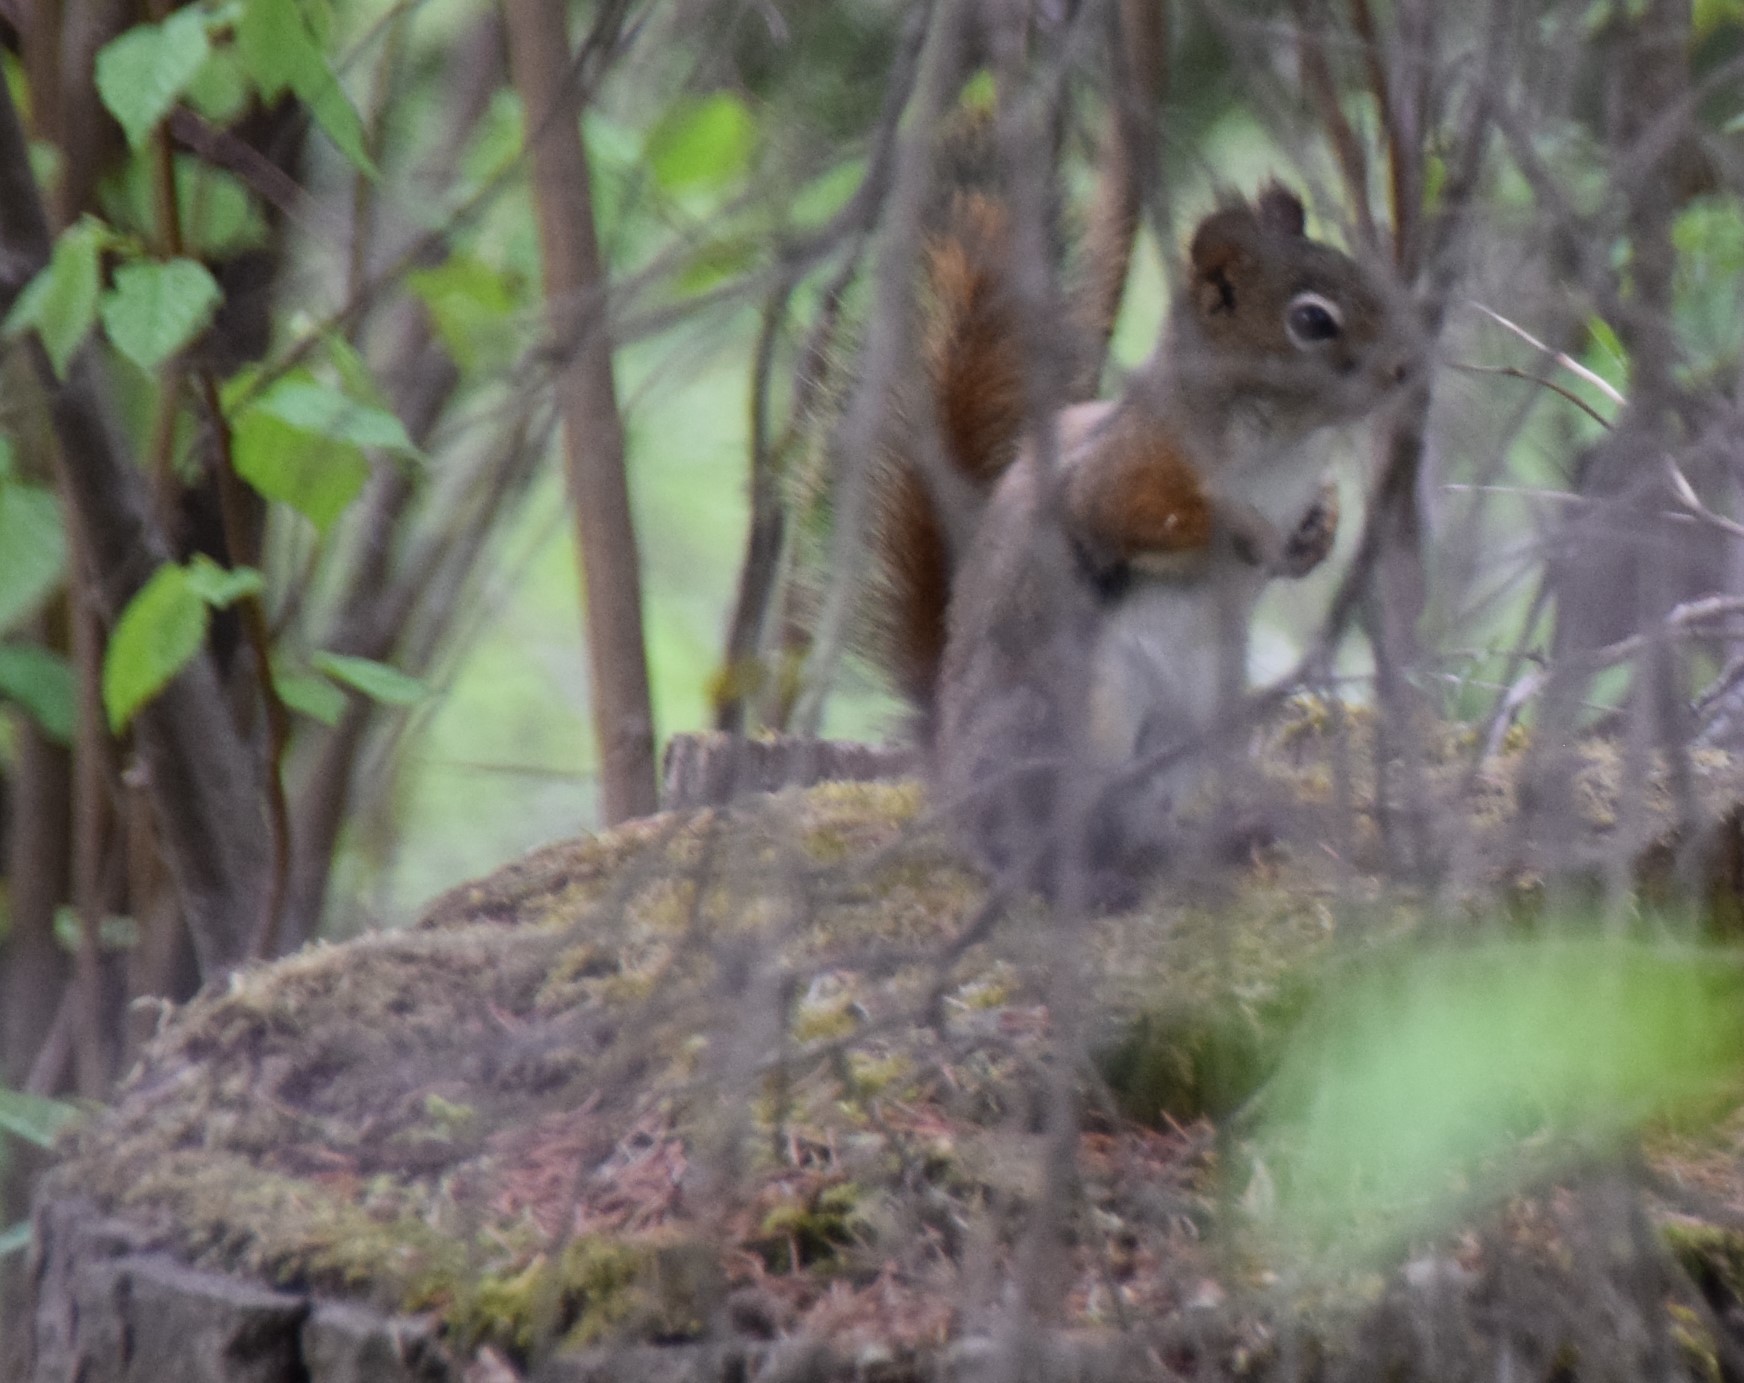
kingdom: Animalia
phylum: Chordata
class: Mammalia
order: Rodentia
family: Sciuridae
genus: Tamiasciurus
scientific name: Tamiasciurus hudsonicus
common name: Red squirrel
